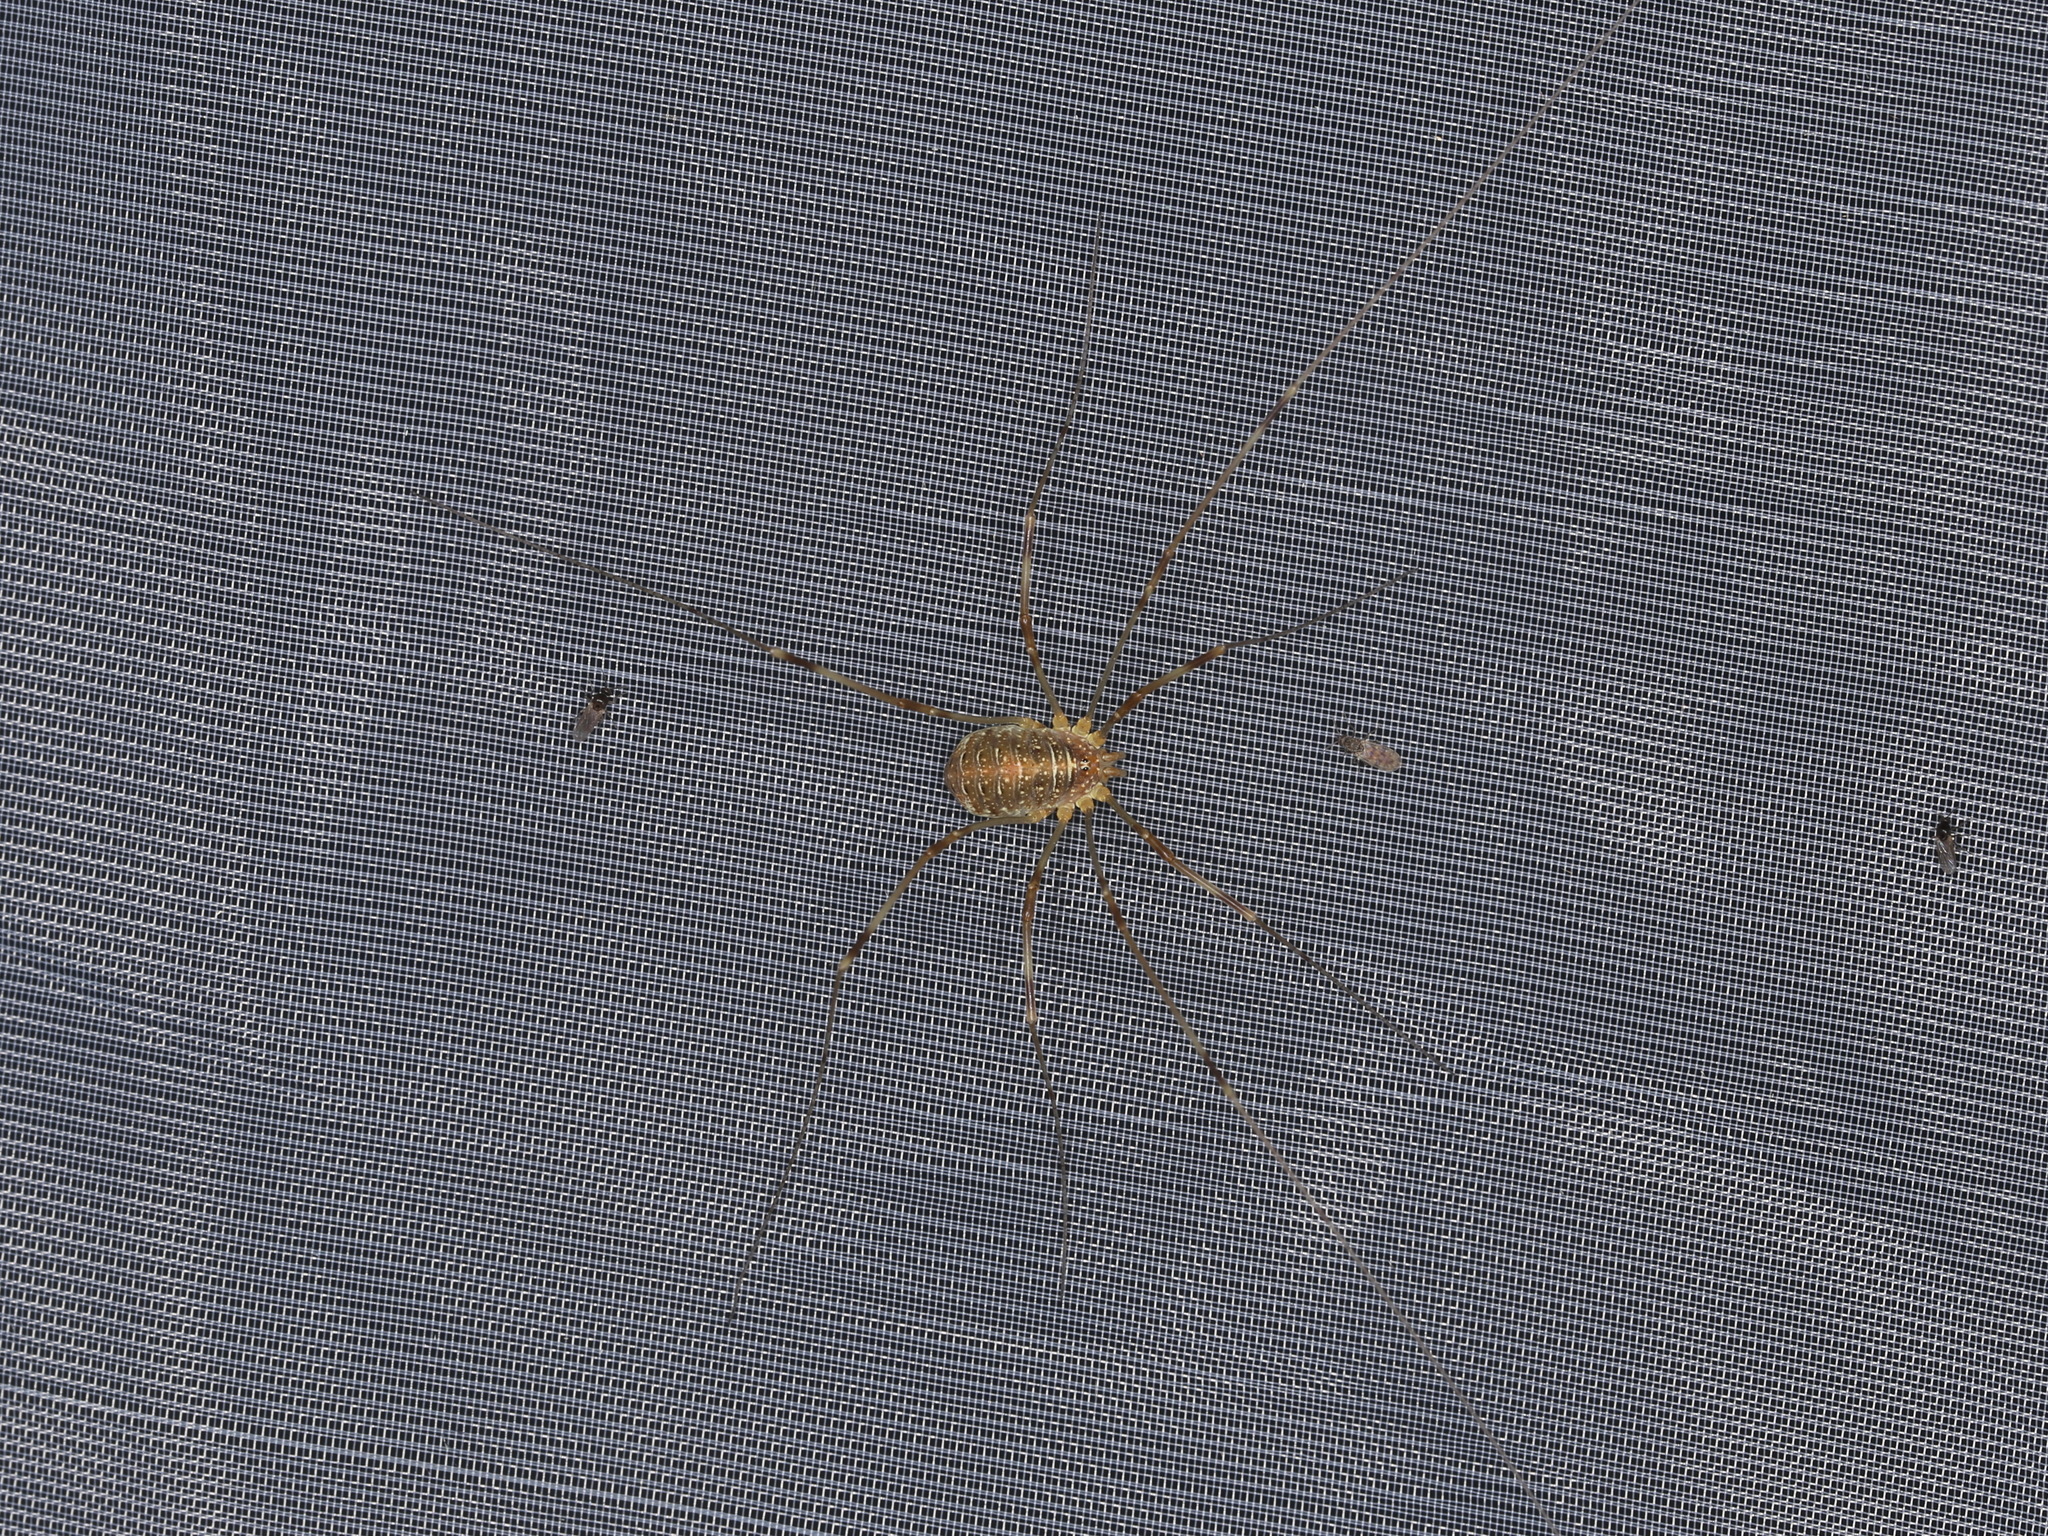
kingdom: Animalia
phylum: Arthropoda
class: Arachnida
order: Opiliones
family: Phalangiidae
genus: Opilio
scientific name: Opilio canestrinii
